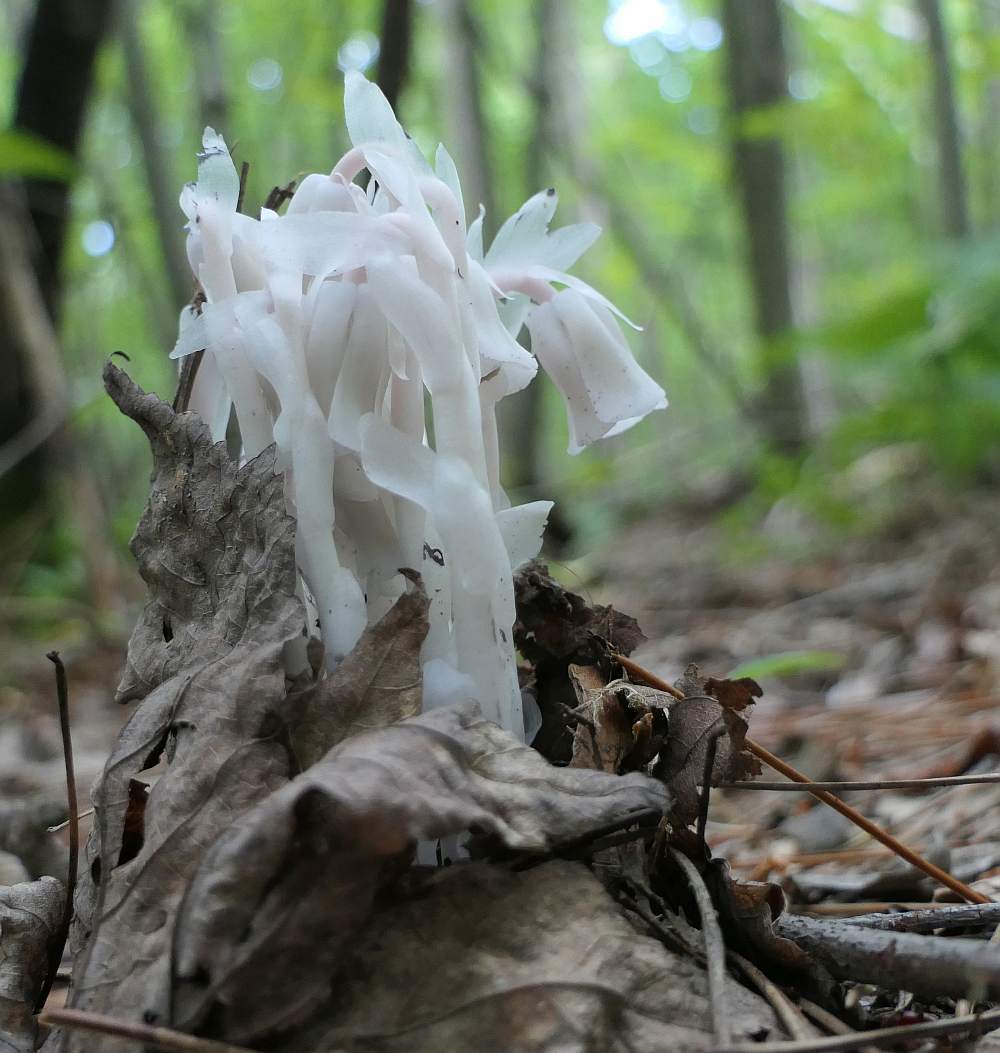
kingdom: Plantae
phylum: Tracheophyta
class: Magnoliopsida
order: Ericales
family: Ericaceae
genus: Monotropa
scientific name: Monotropa uniflora
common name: Convulsion root
